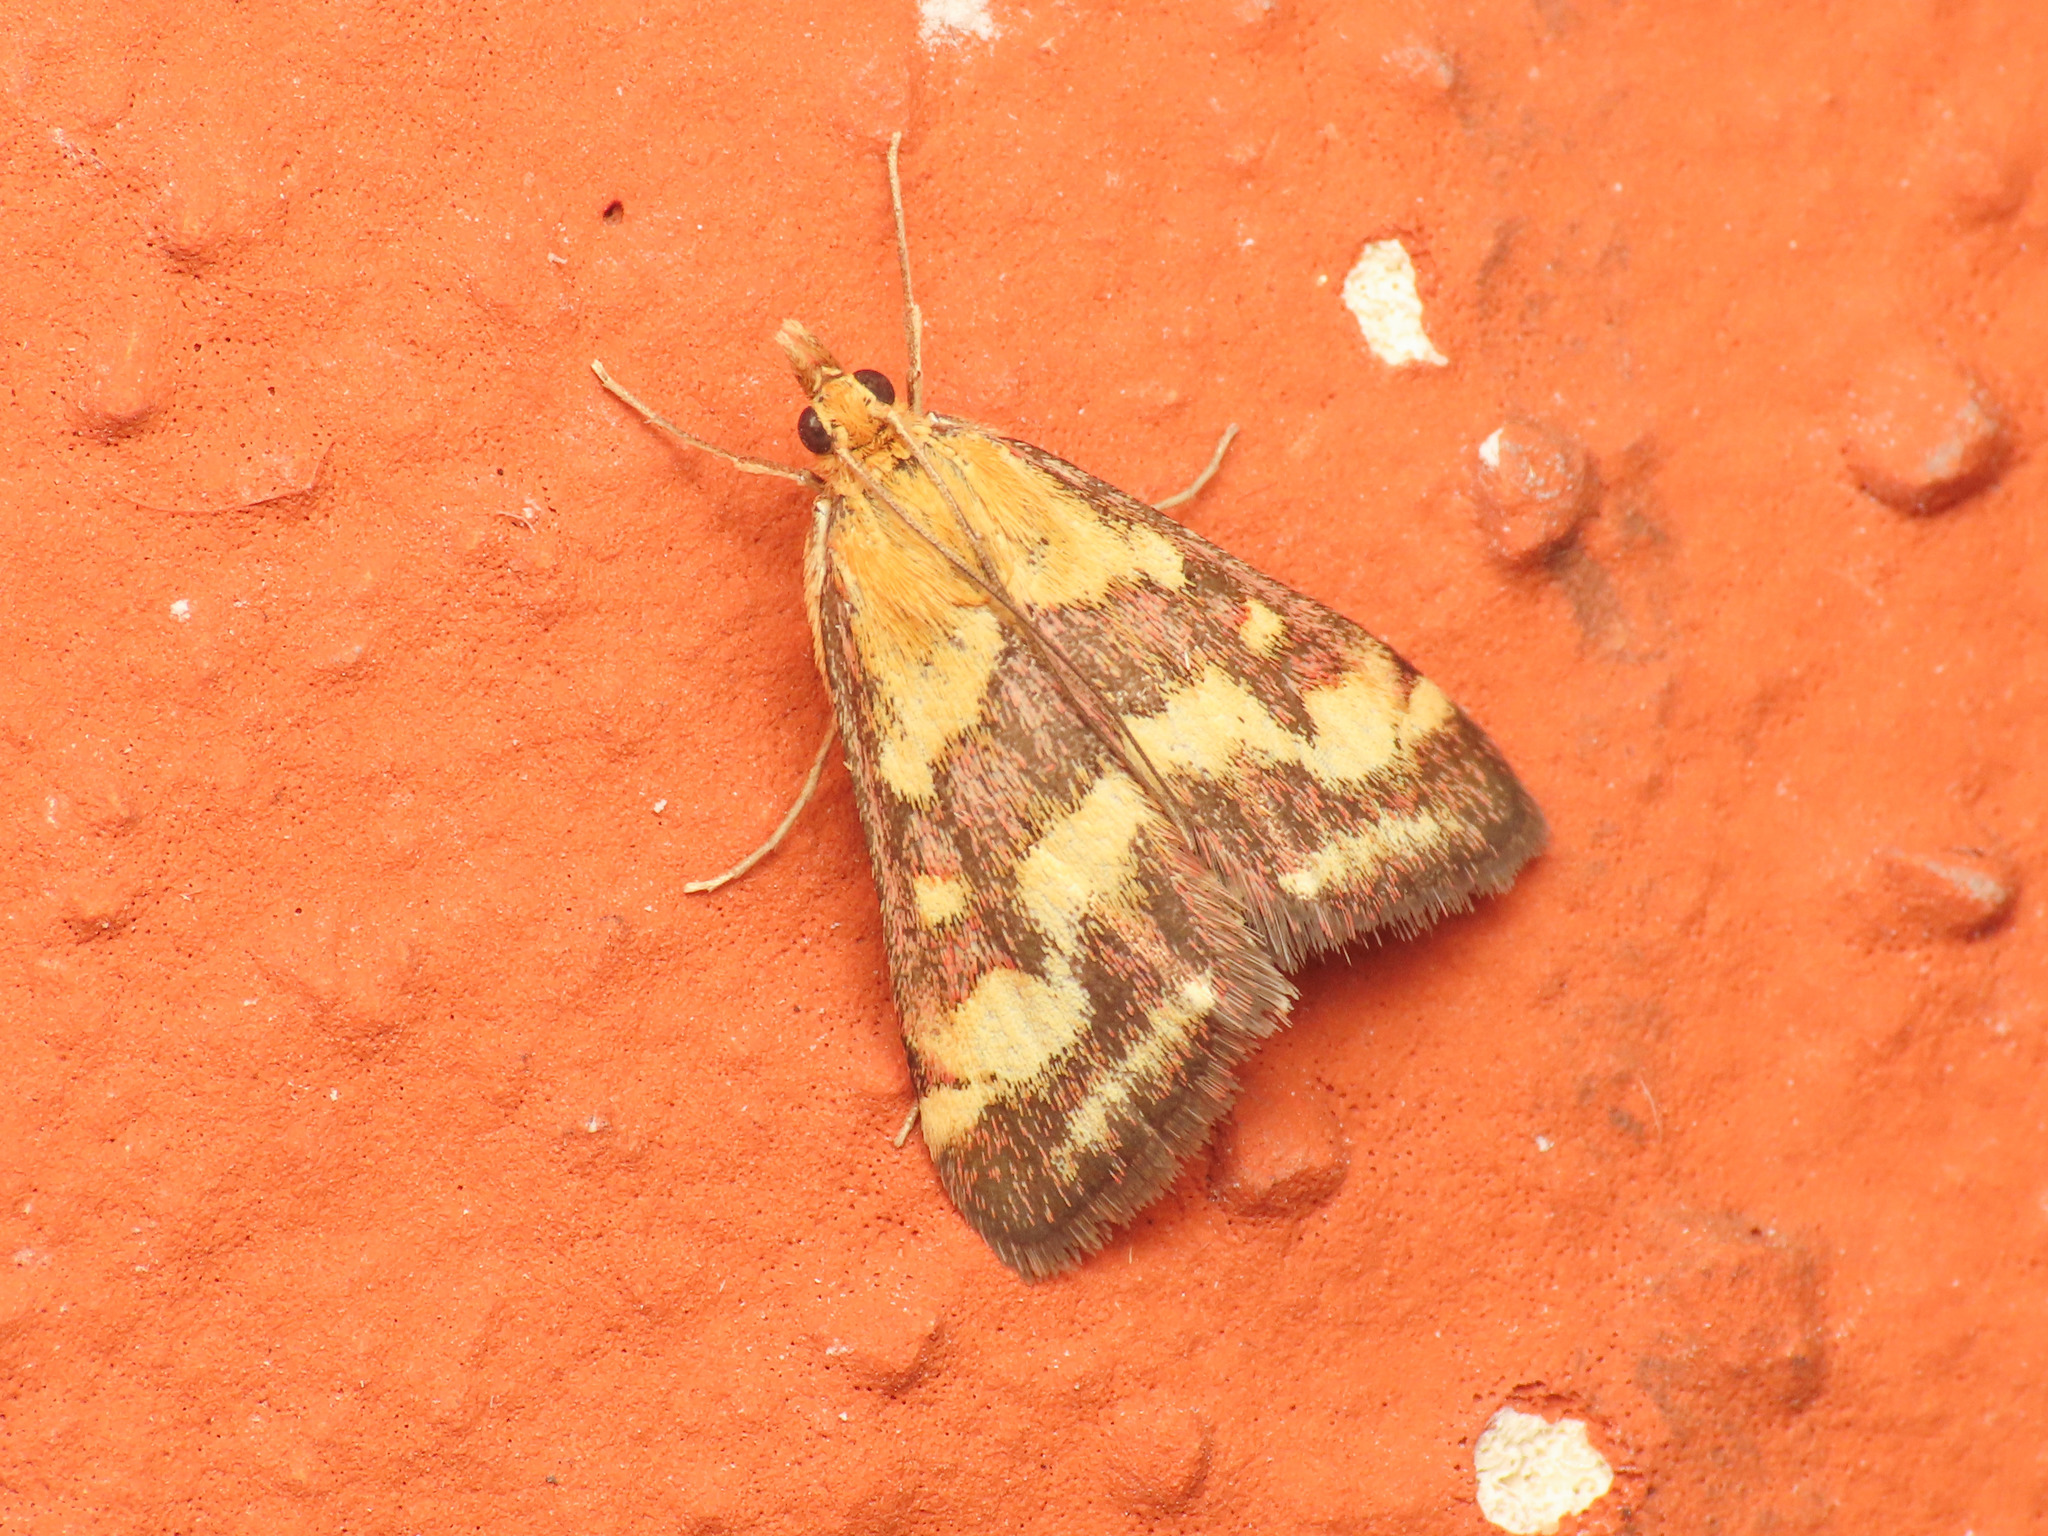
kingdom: Animalia
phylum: Arthropoda
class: Insecta
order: Lepidoptera
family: Crambidae
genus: Pyrausta
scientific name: Pyrausta ostrinalis
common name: Scarce purple & gold
